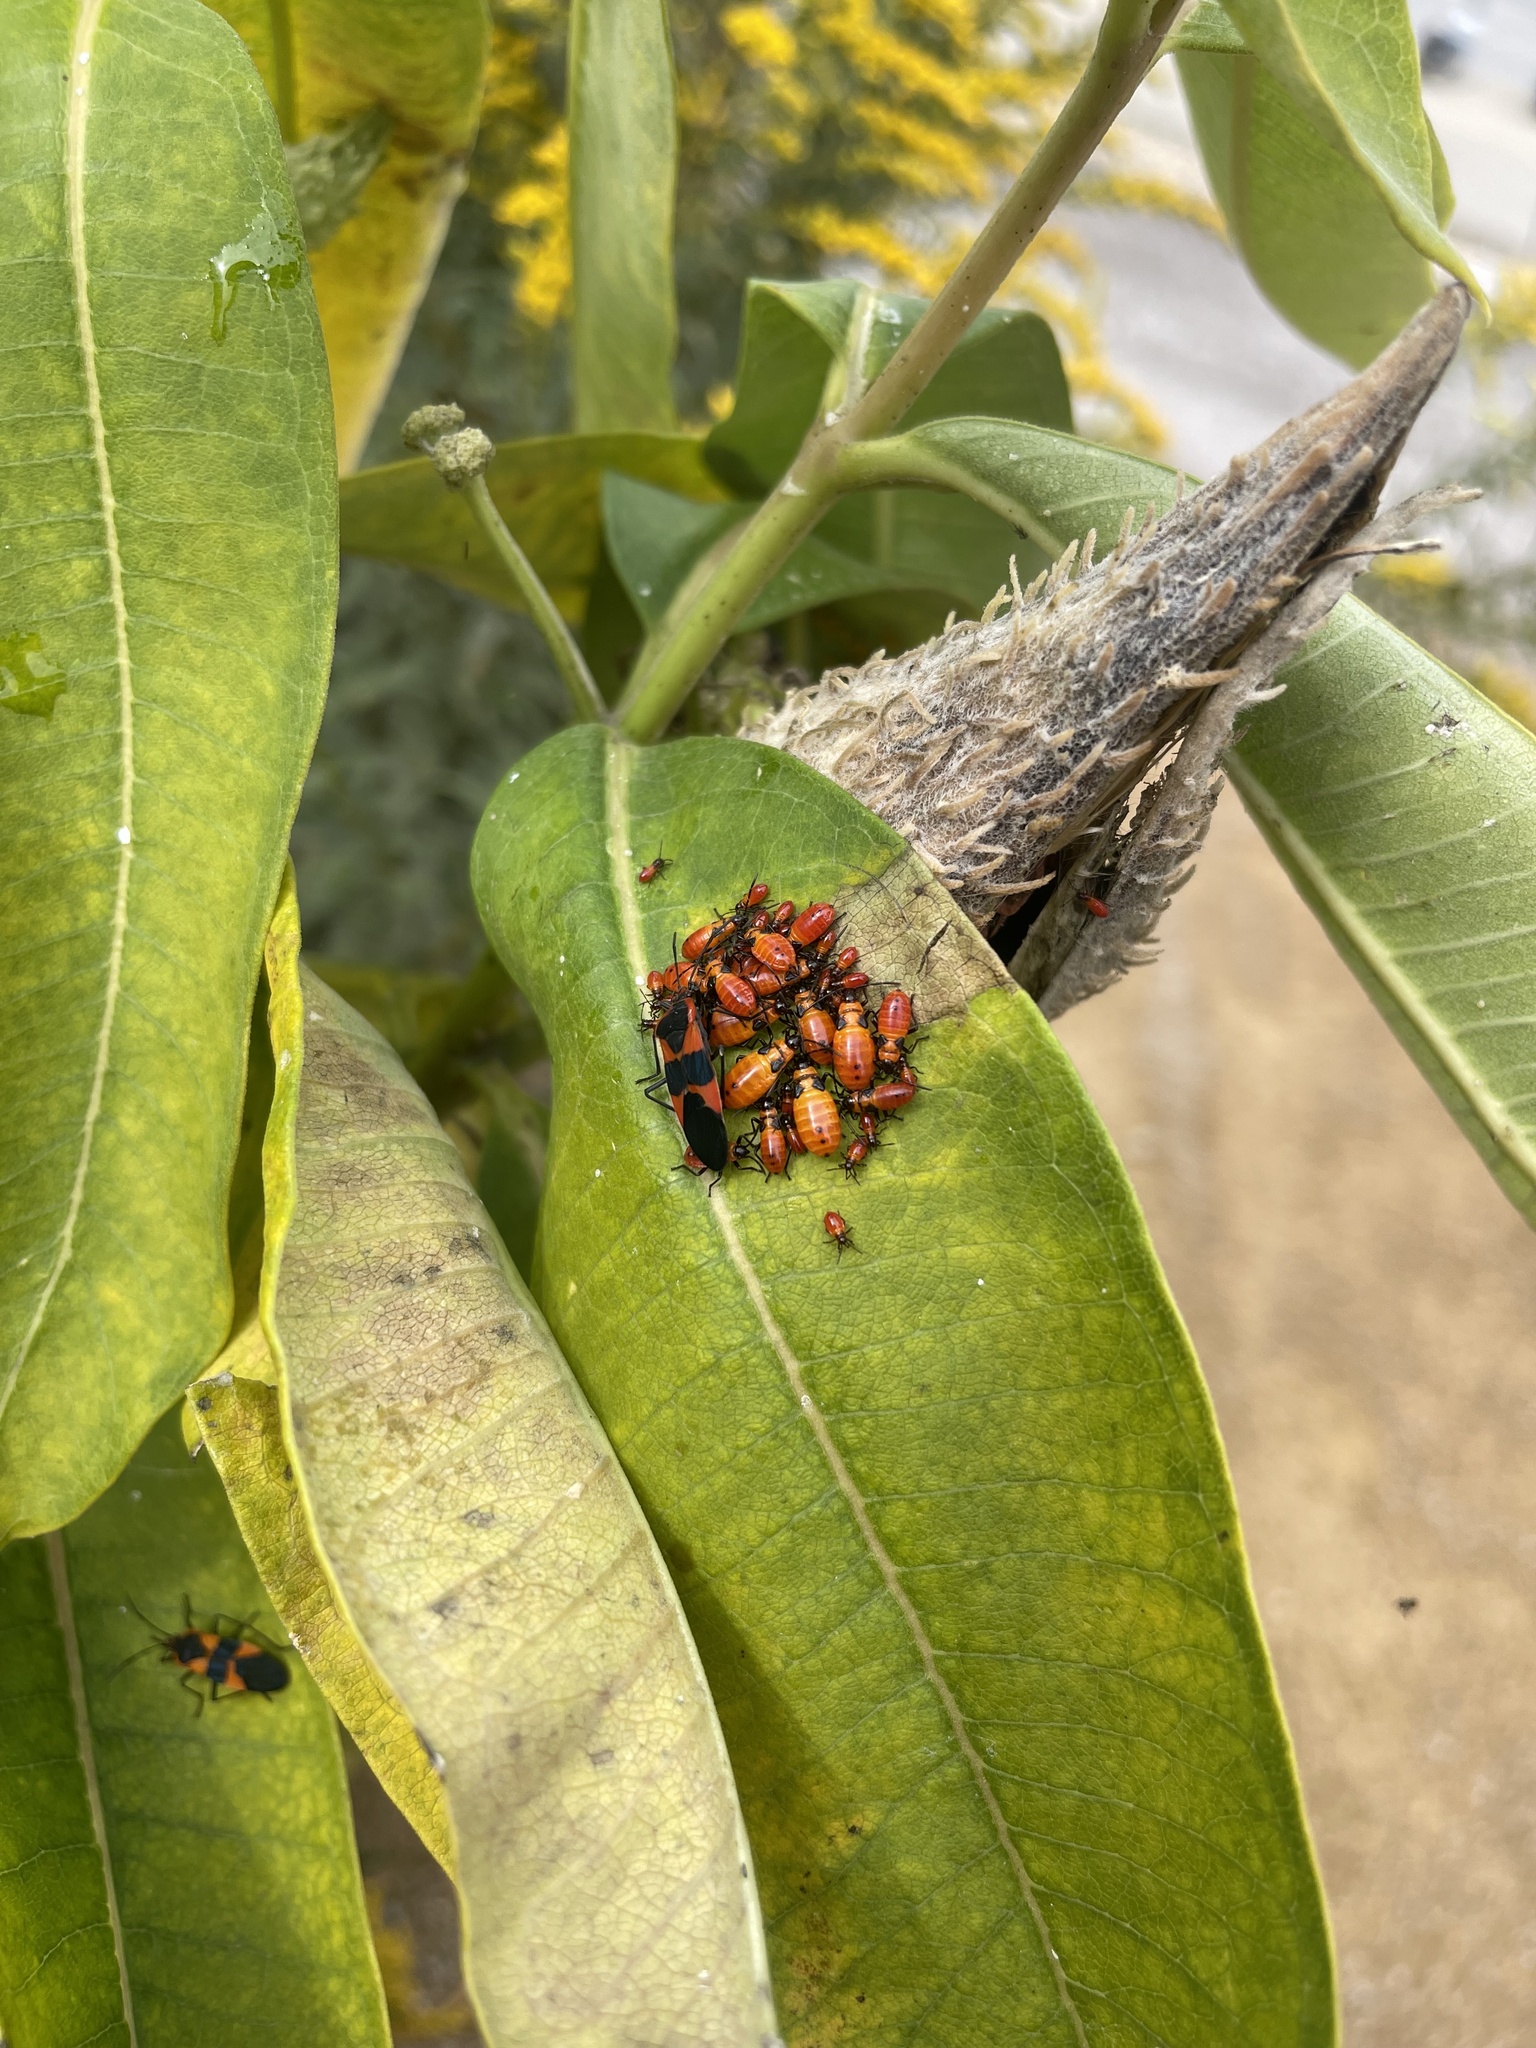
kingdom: Animalia
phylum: Arthropoda
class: Insecta
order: Hemiptera
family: Lygaeidae
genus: Oncopeltus
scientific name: Oncopeltus fasciatus
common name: Large milkweed bug
